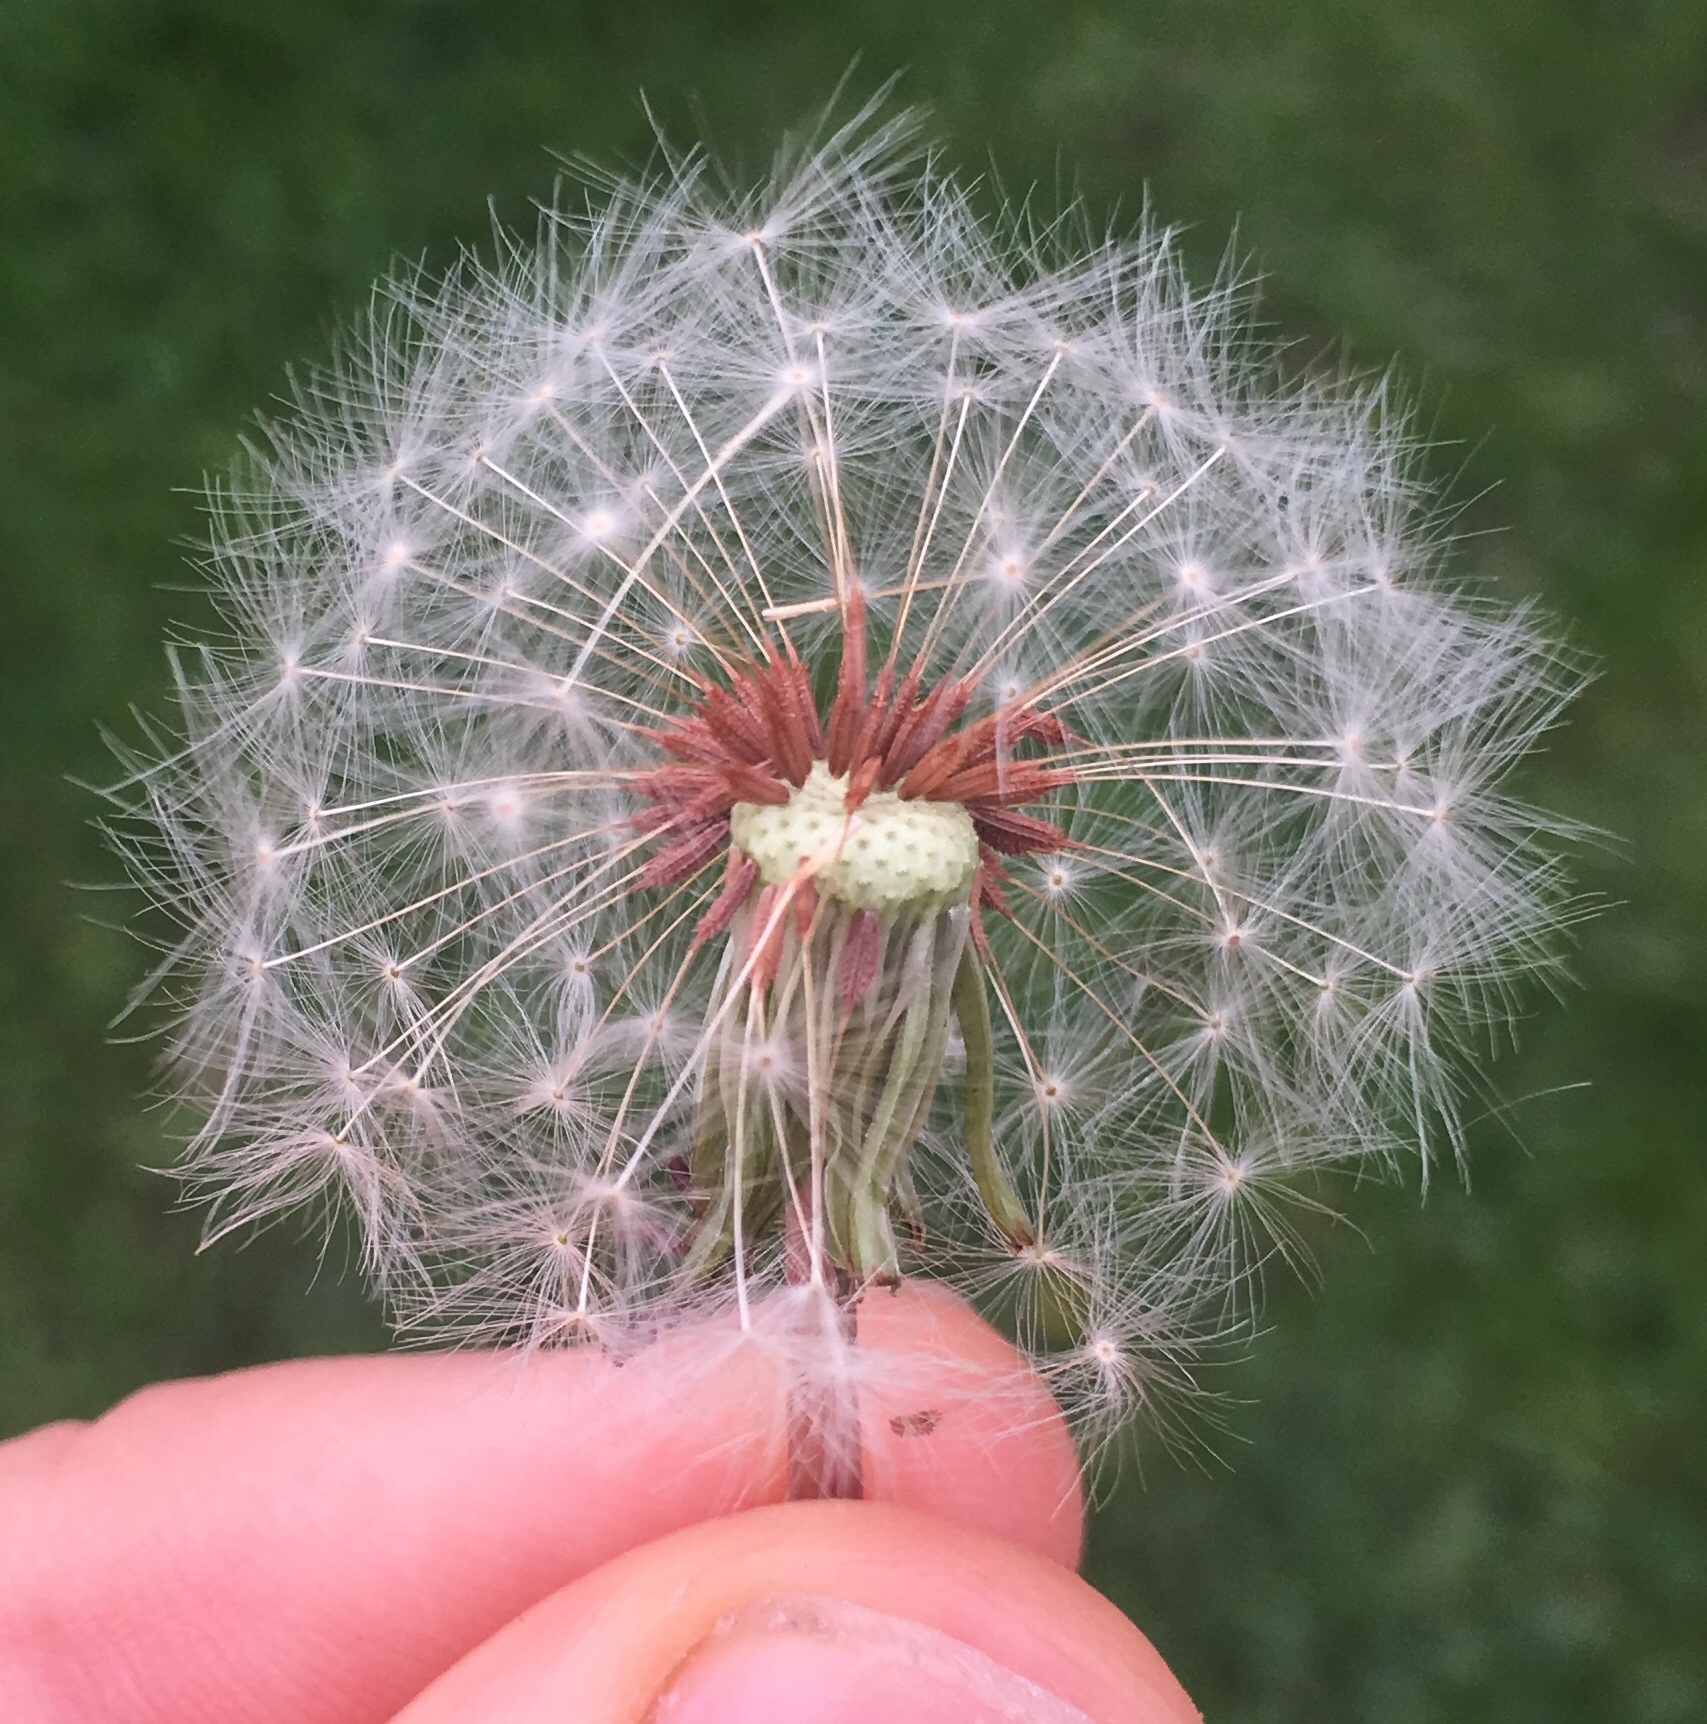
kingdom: Plantae
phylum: Tracheophyta
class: Magnoliopsida
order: Asterales
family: Asteraceae
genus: Taraxacum
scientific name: Taraxacum erythrospermum
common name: Rock dandelion
